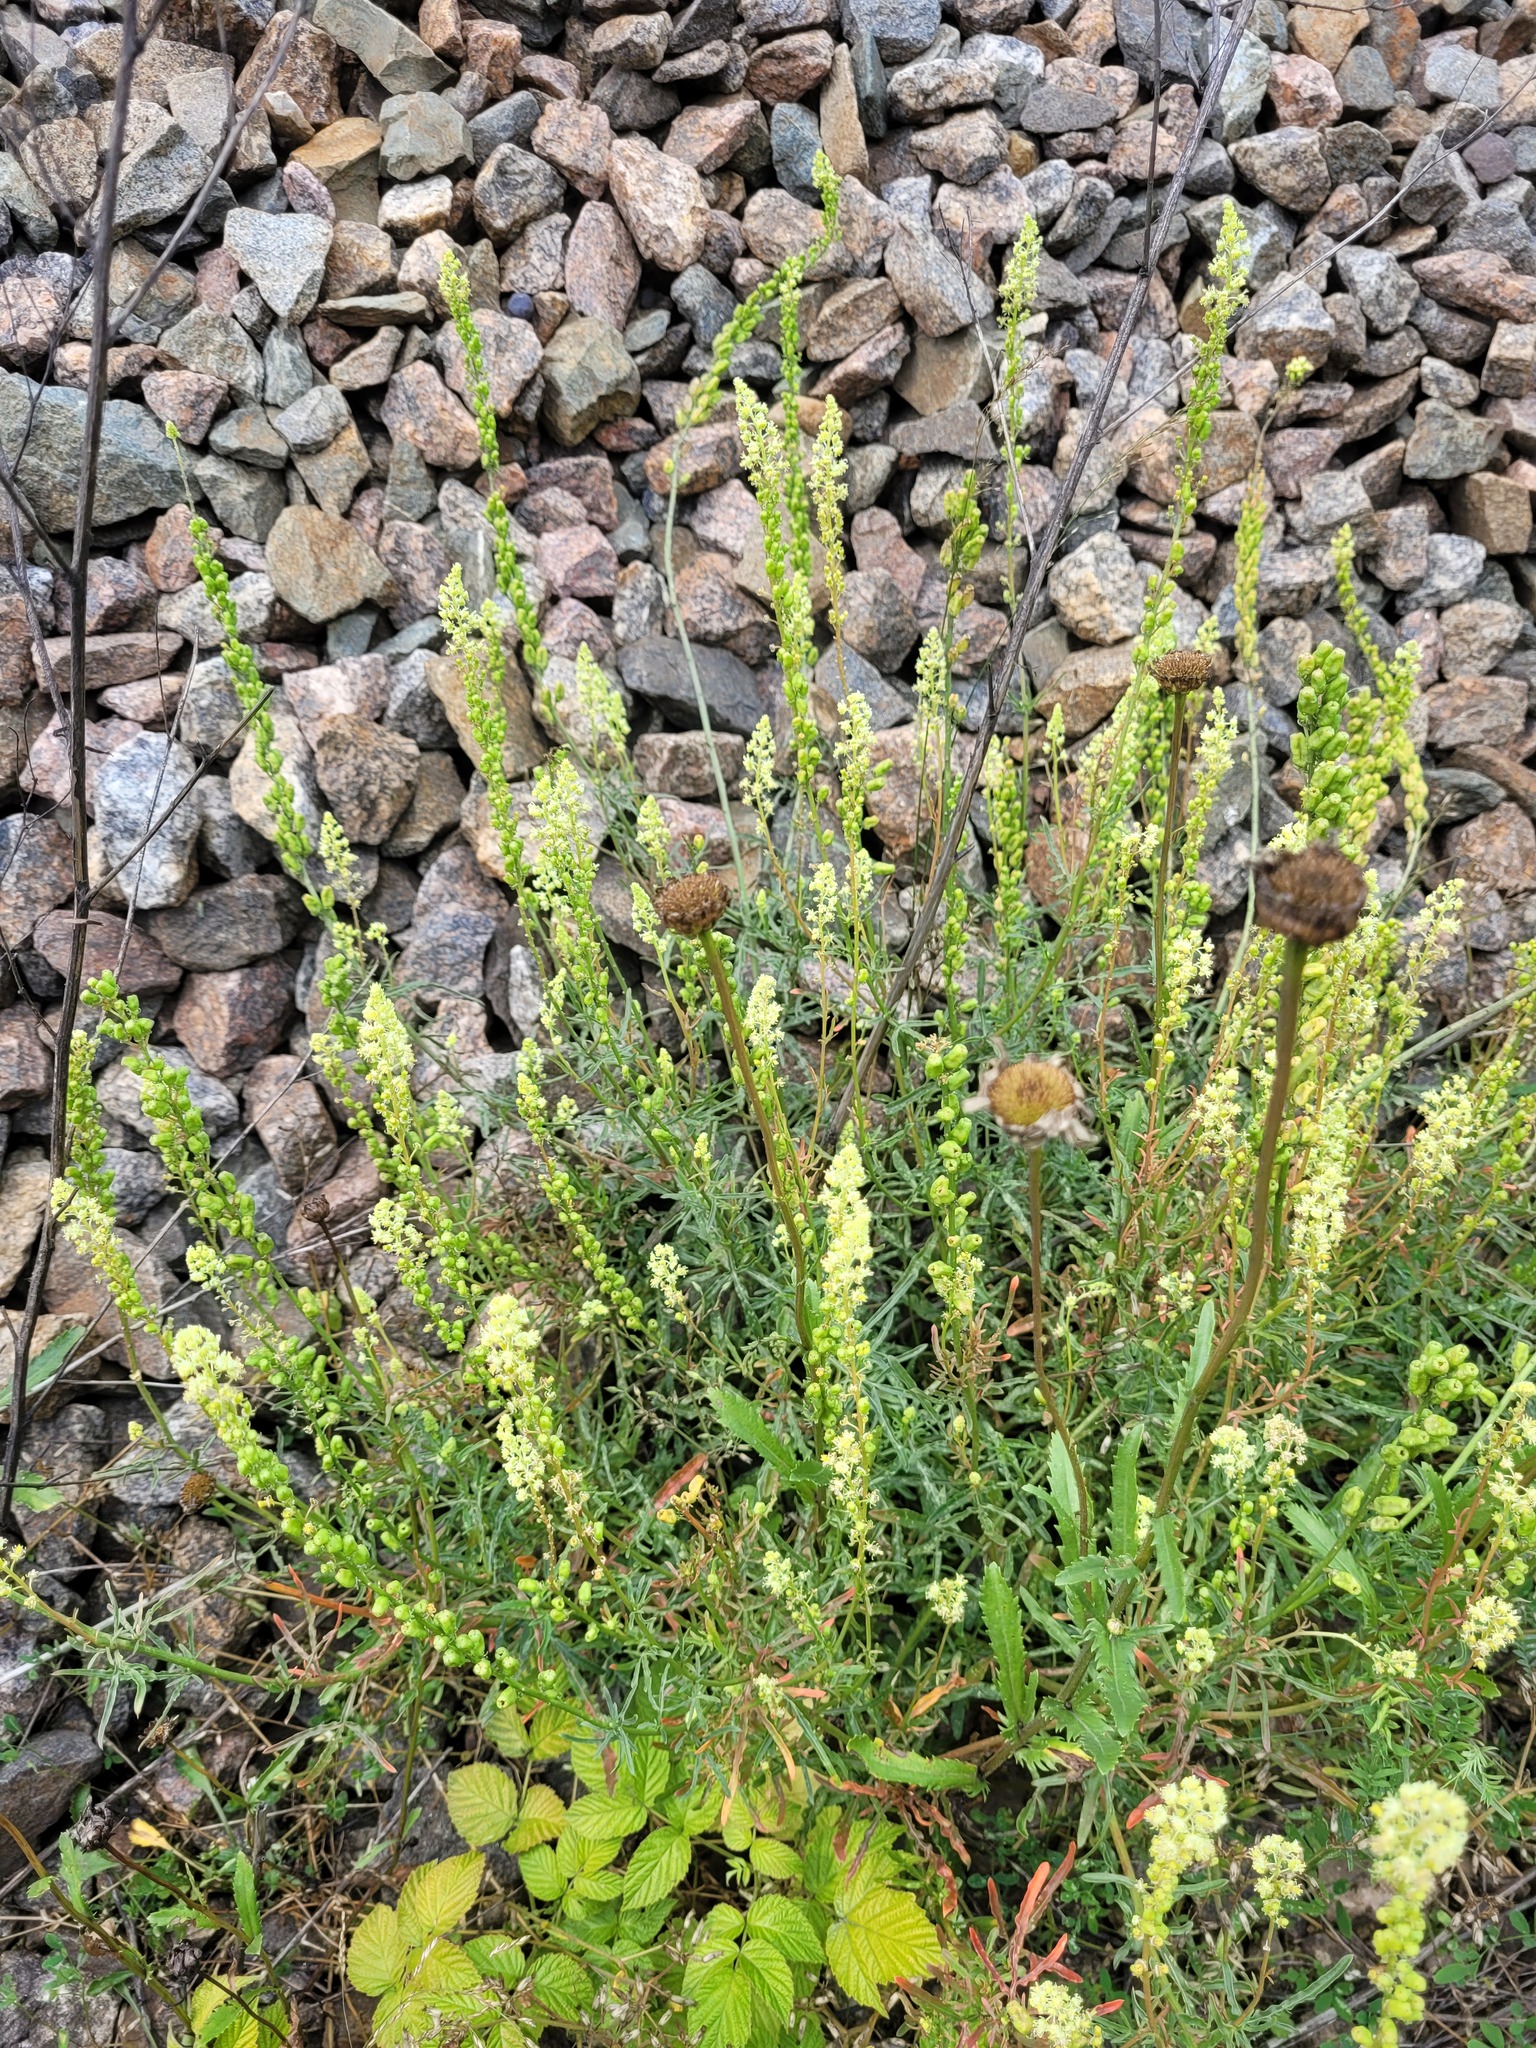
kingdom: Plantae
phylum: Tracheophyta
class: Magnoliopsida
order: Brassicales
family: Resedaceae
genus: Reseda
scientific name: Reseda lutea
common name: Wild mignonette
